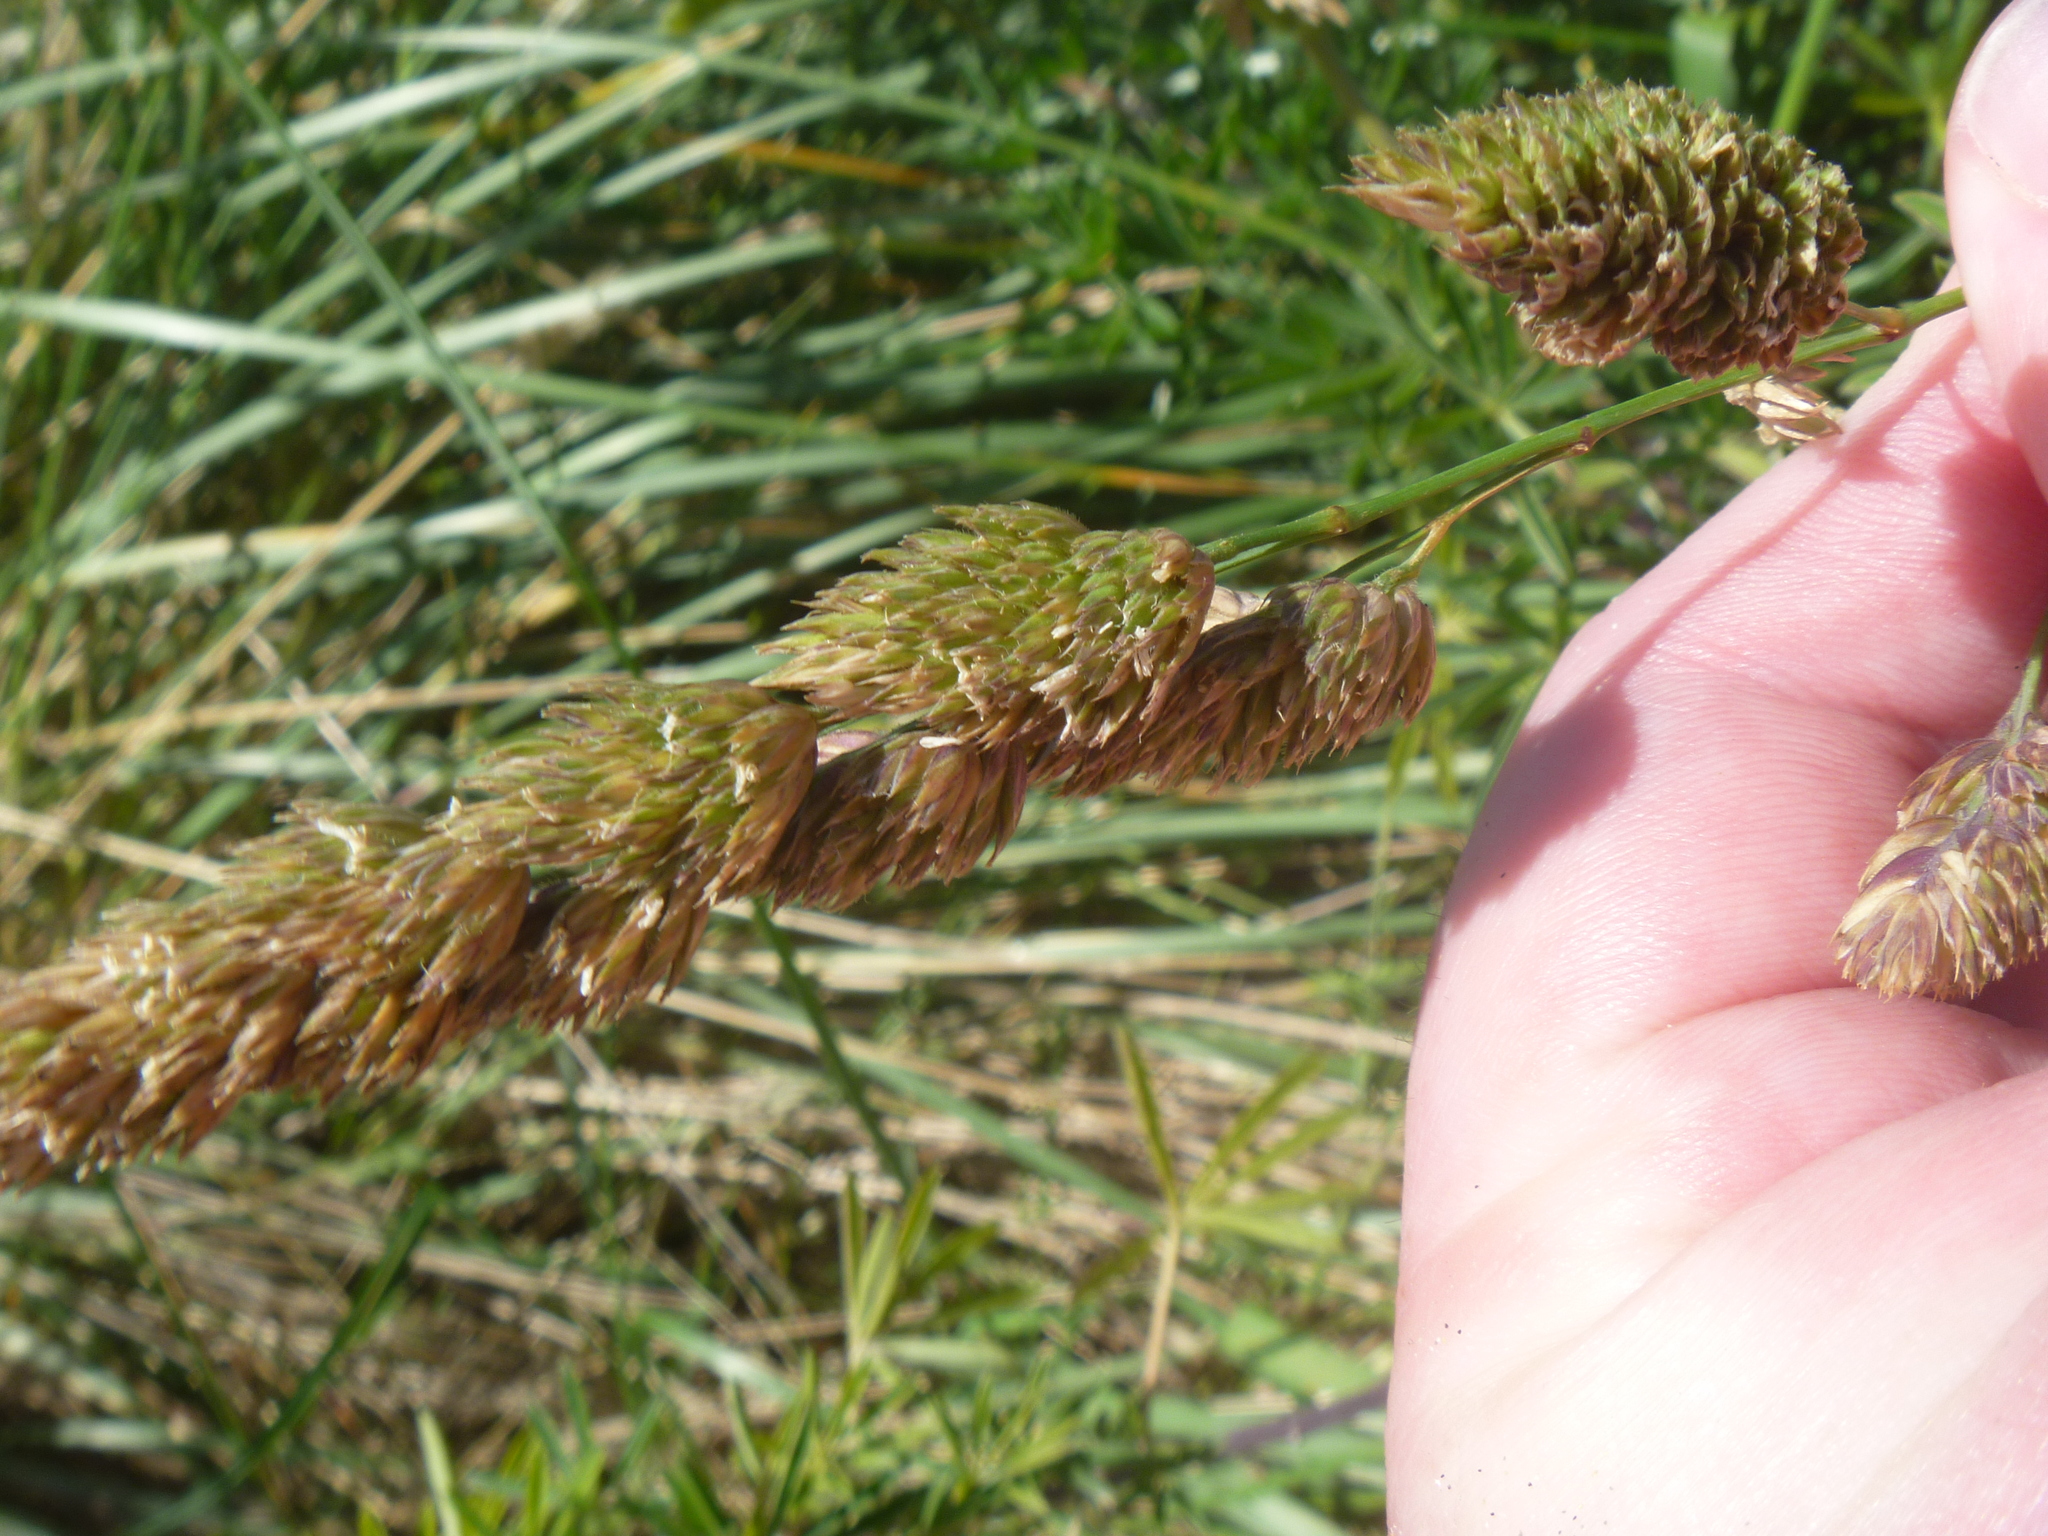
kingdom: Plantae
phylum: Tracheophyta
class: Liliopsida
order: Poales
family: Poaceae
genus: Dactylis
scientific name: Dactylis glomerata
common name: Orchardgrass
